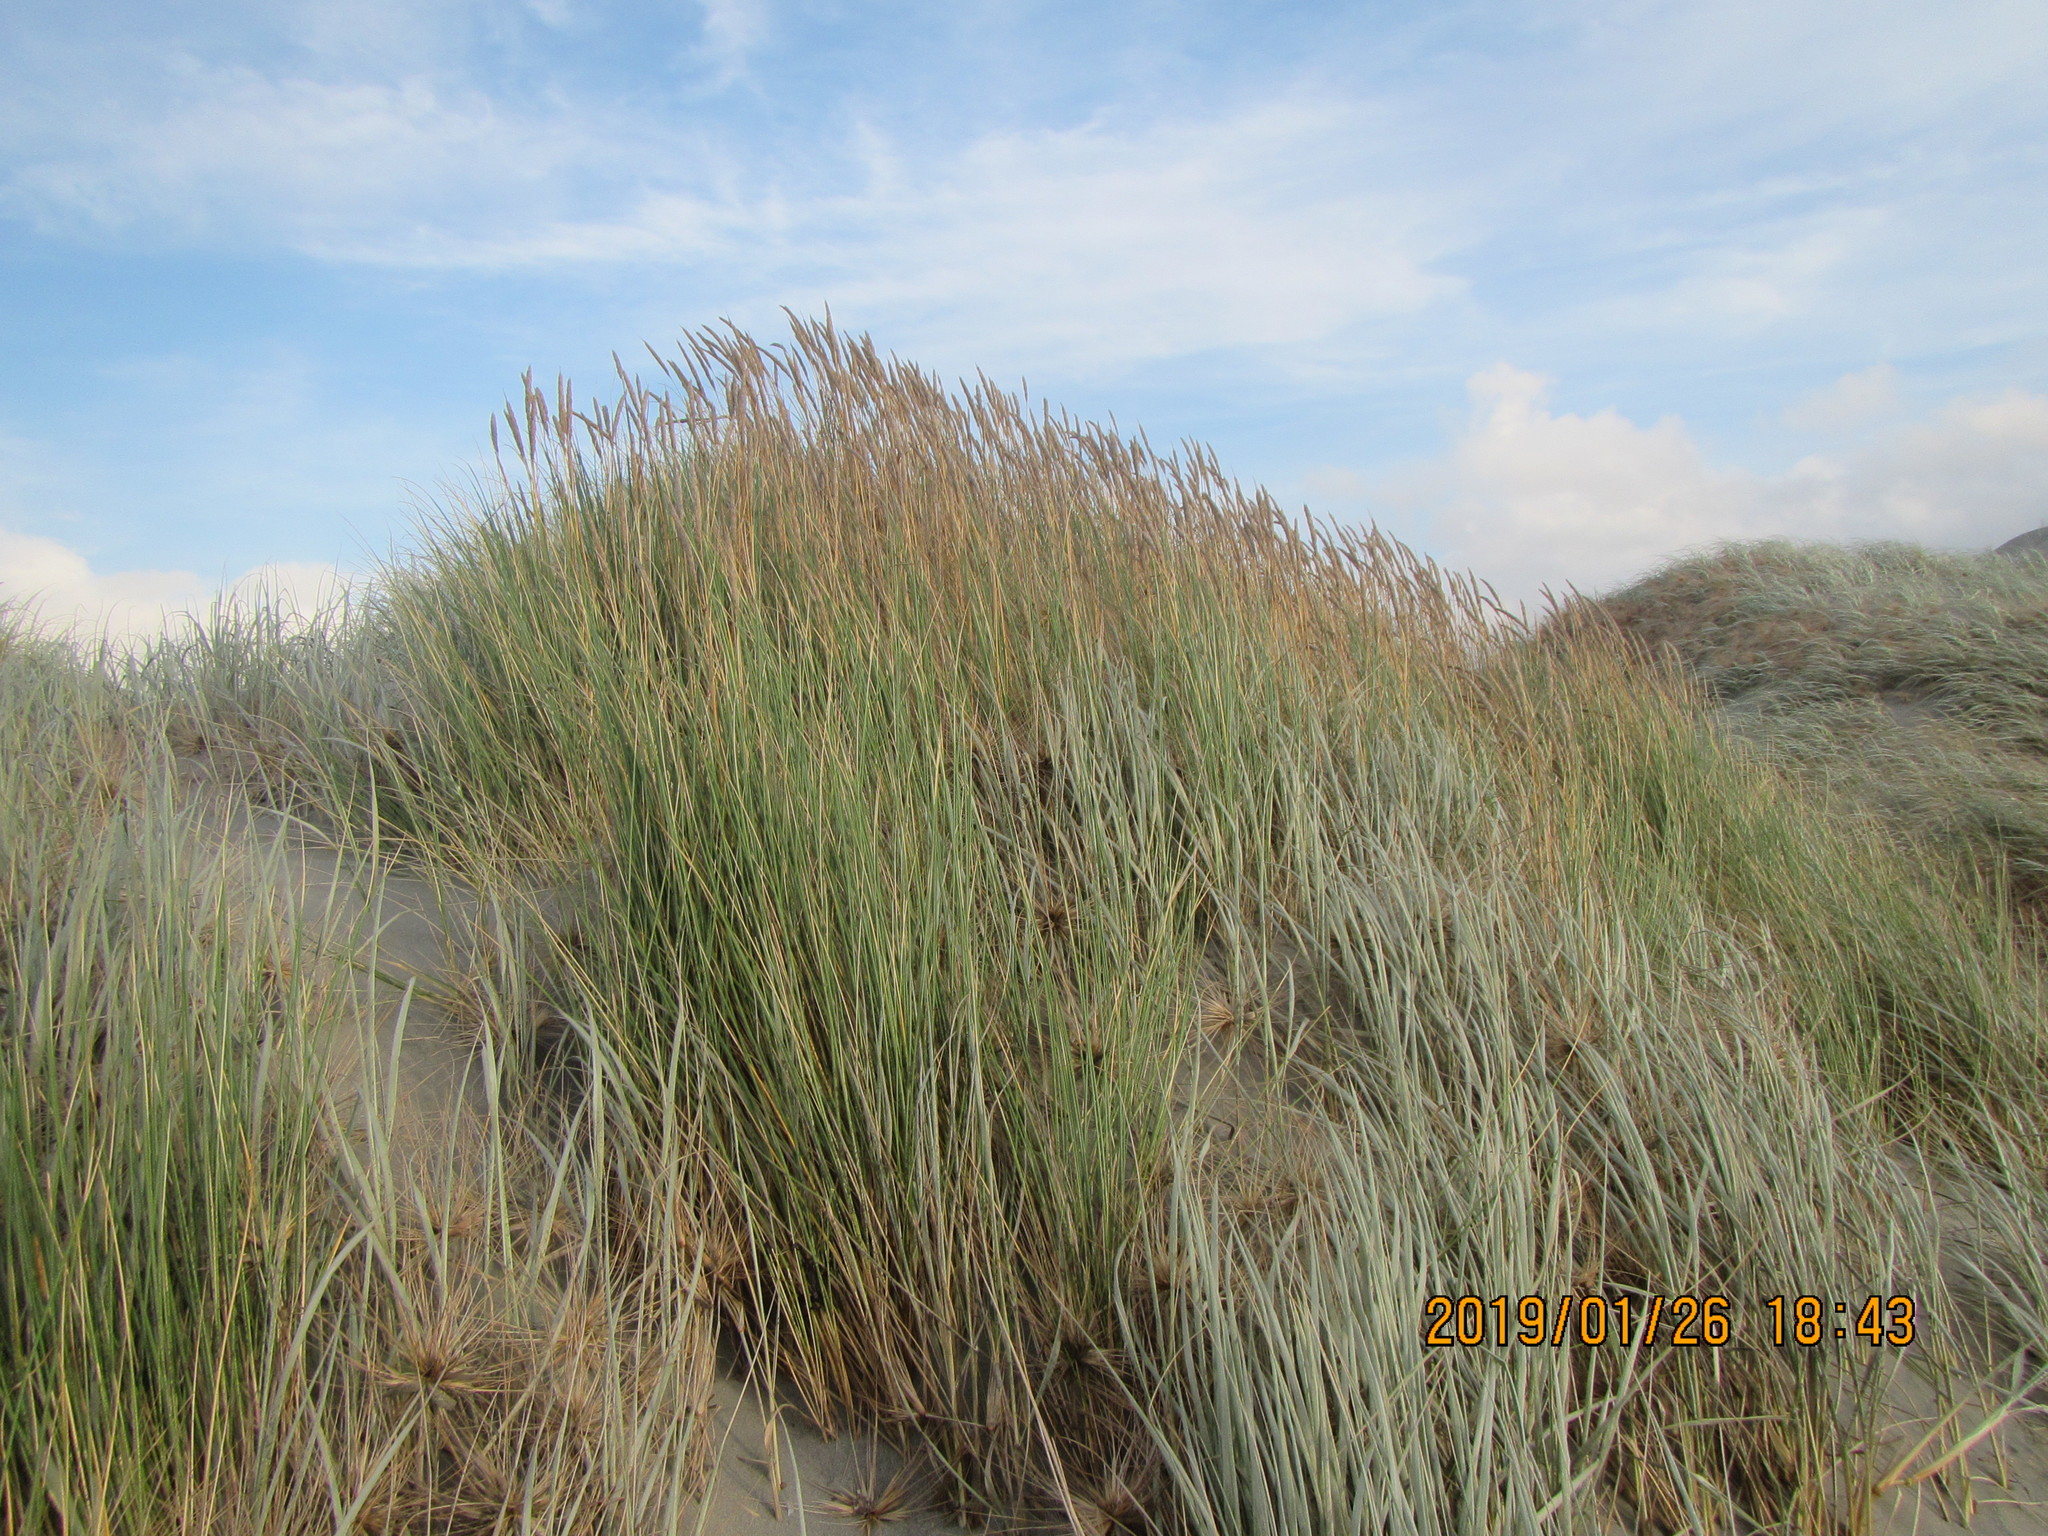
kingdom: Plantae
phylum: Tracheophyta
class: Liliopsida
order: Poales
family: Poaceae
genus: Calamagrostis
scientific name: Calamagrostis arenaria
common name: European beachgrass
